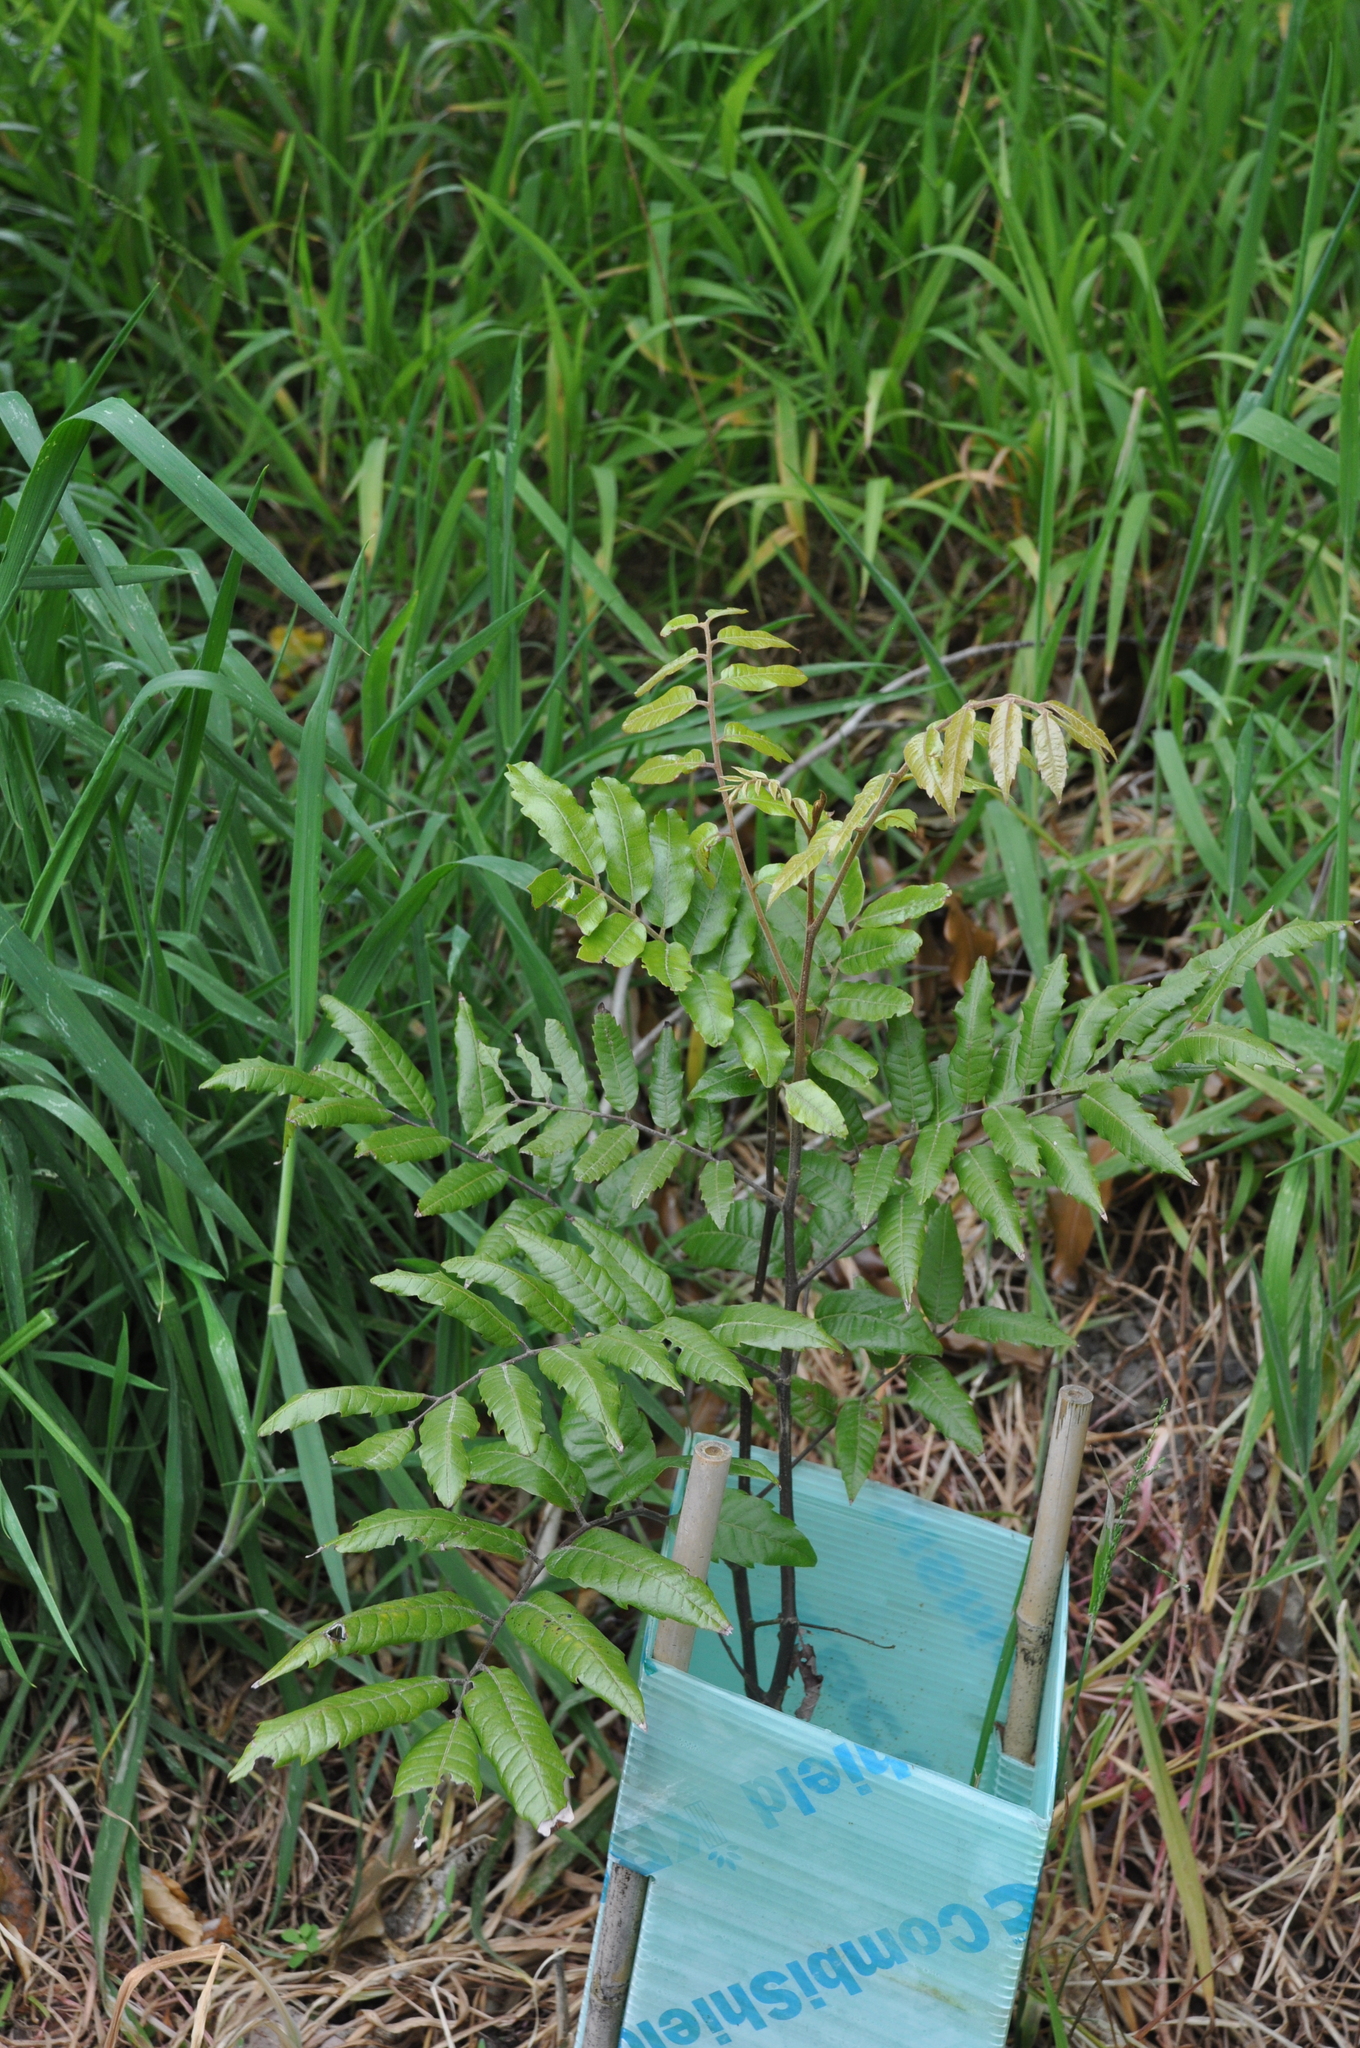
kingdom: Plantae
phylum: Tracheophyta
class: Magnoliopsida
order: Sapindales
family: Sapindaceae
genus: Alectryon
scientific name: Alectryon excelsus
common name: Three kings titoki
